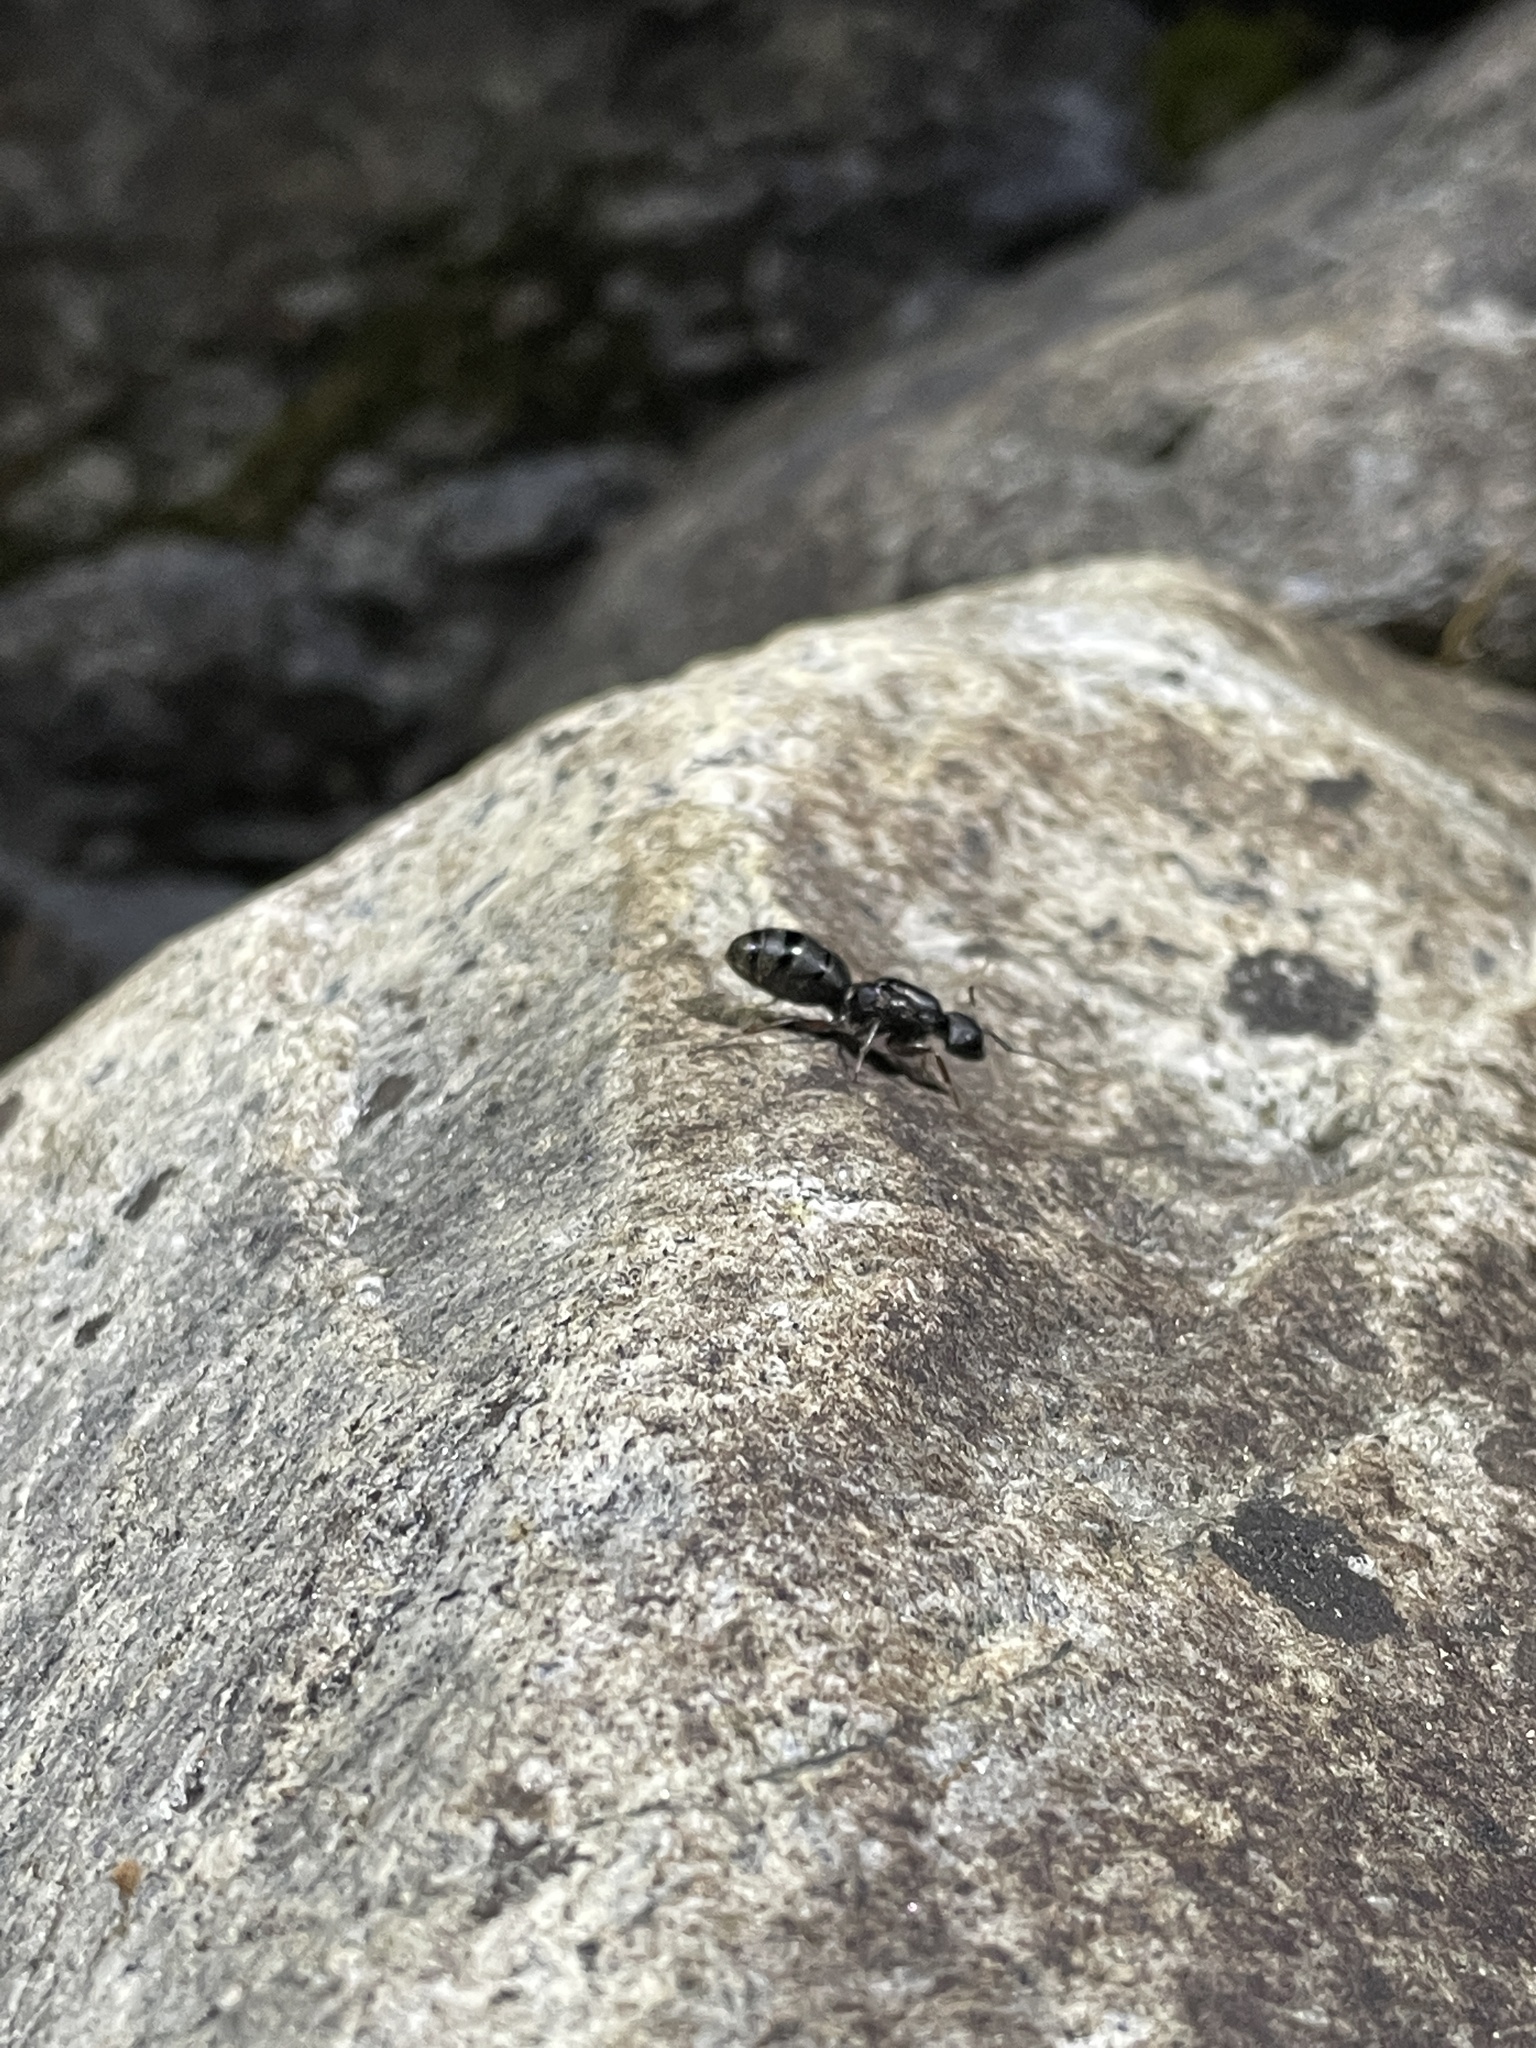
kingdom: Animalia
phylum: Arthropoda
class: Insecta
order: Hymenoptera
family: Formicidae
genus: Camponotus
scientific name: Camponotus modoc
